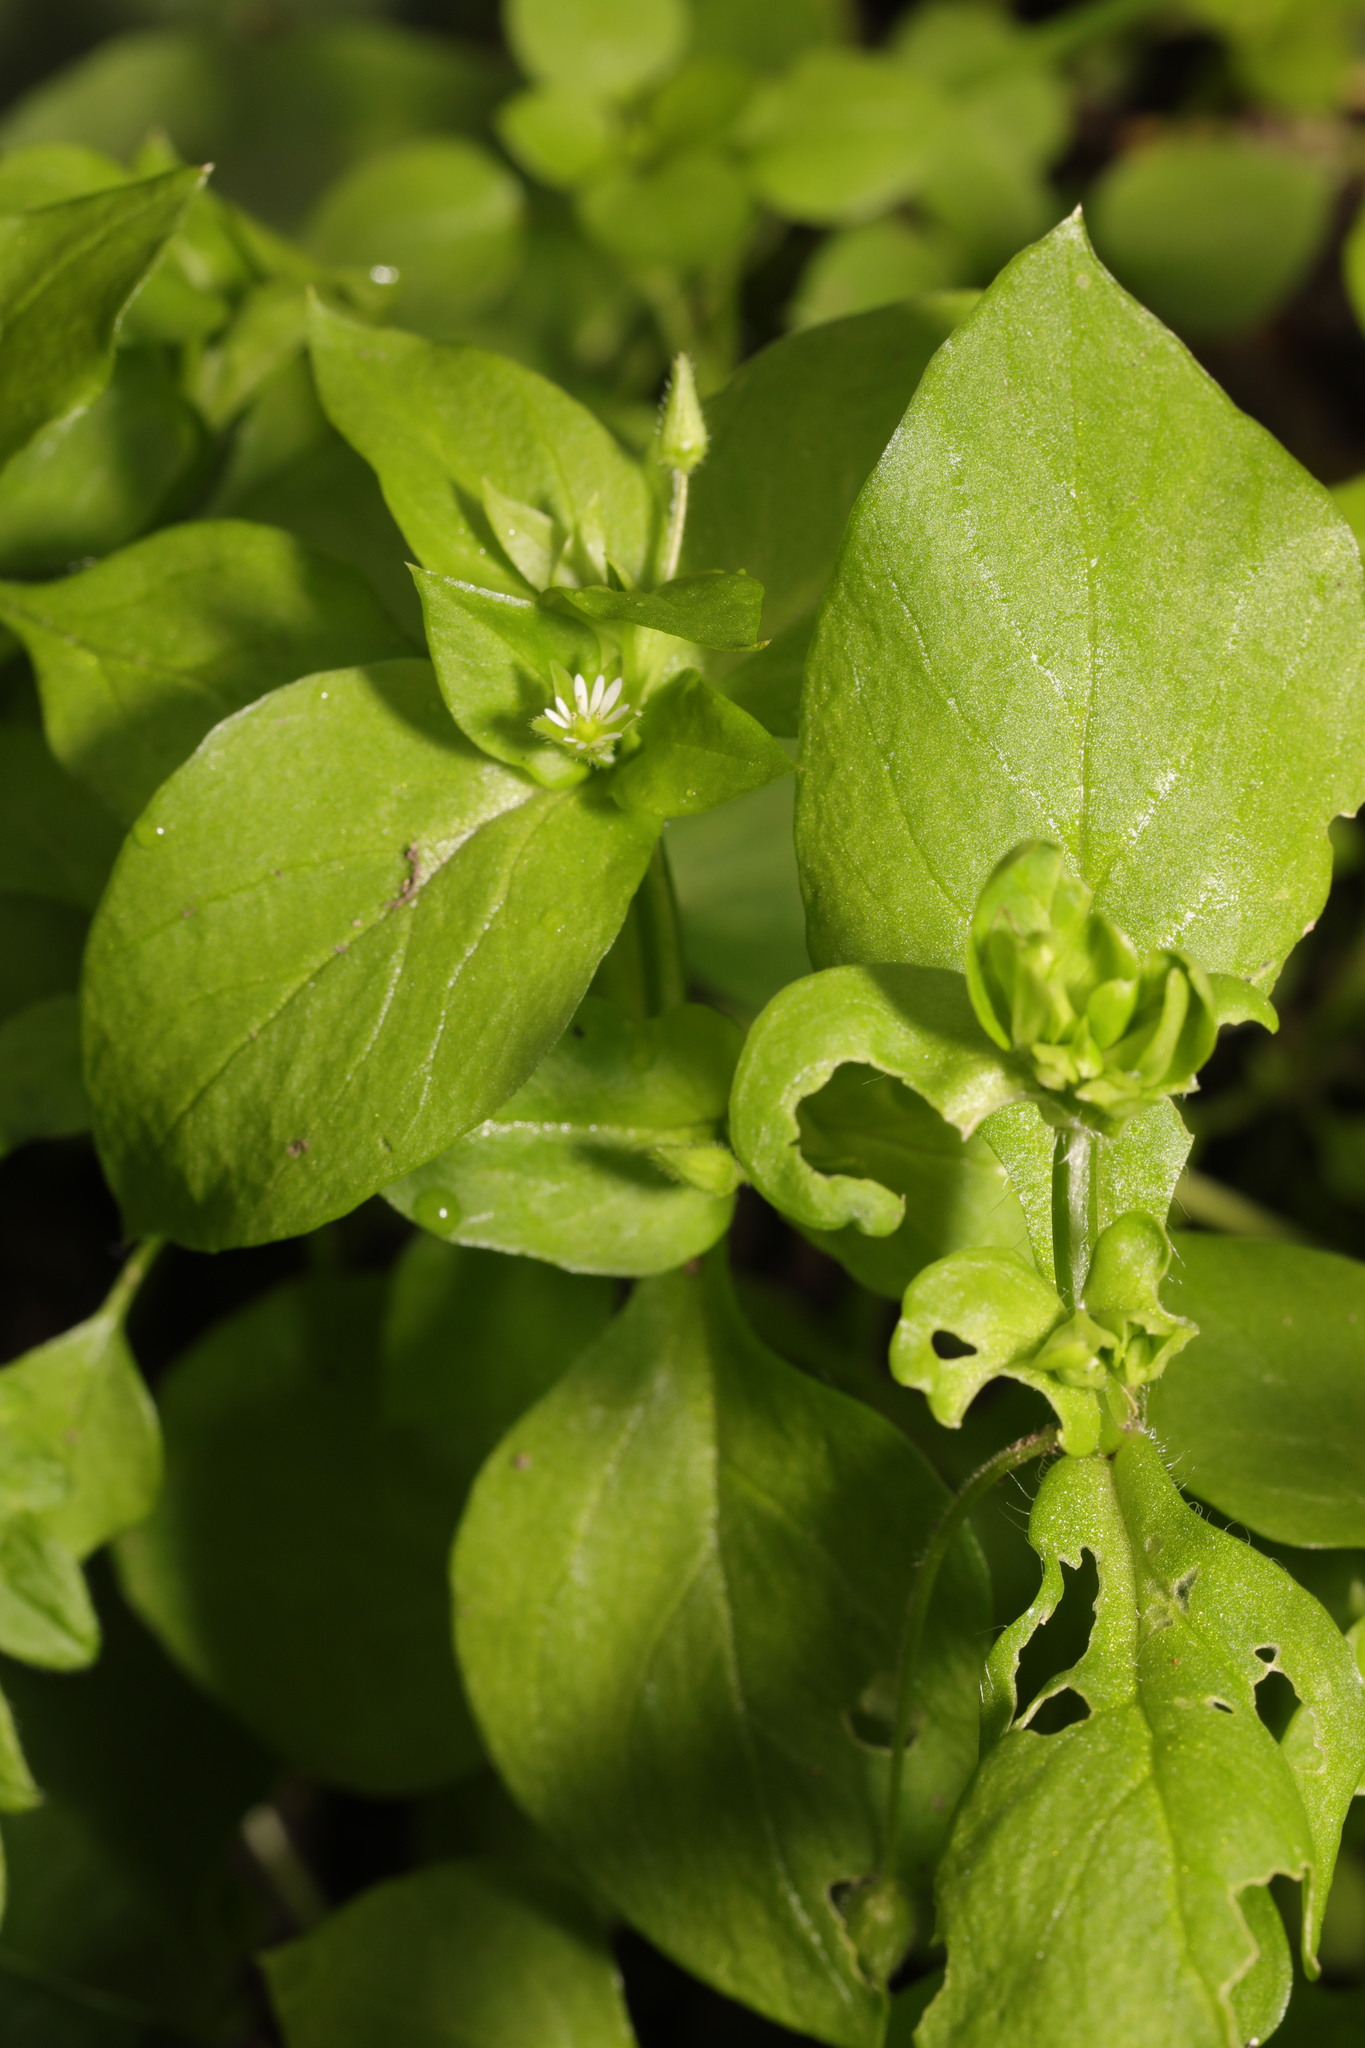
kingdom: Plantae
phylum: Tracheophyta
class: Magnoliopsida
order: Caryophyllales
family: Caryophyllaceae
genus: Stellaria
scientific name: Stellaria media
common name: Common chickweed
